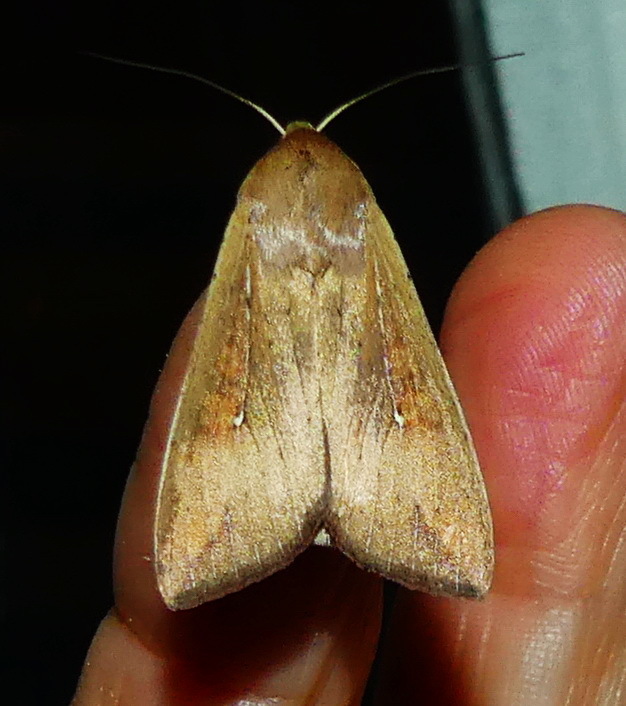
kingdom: Animalia
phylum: Arthropoda
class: Insecta
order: Lepidoptera
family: Noctuidae
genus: Mythimna
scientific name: Mythimna unipuncta
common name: White-speck
